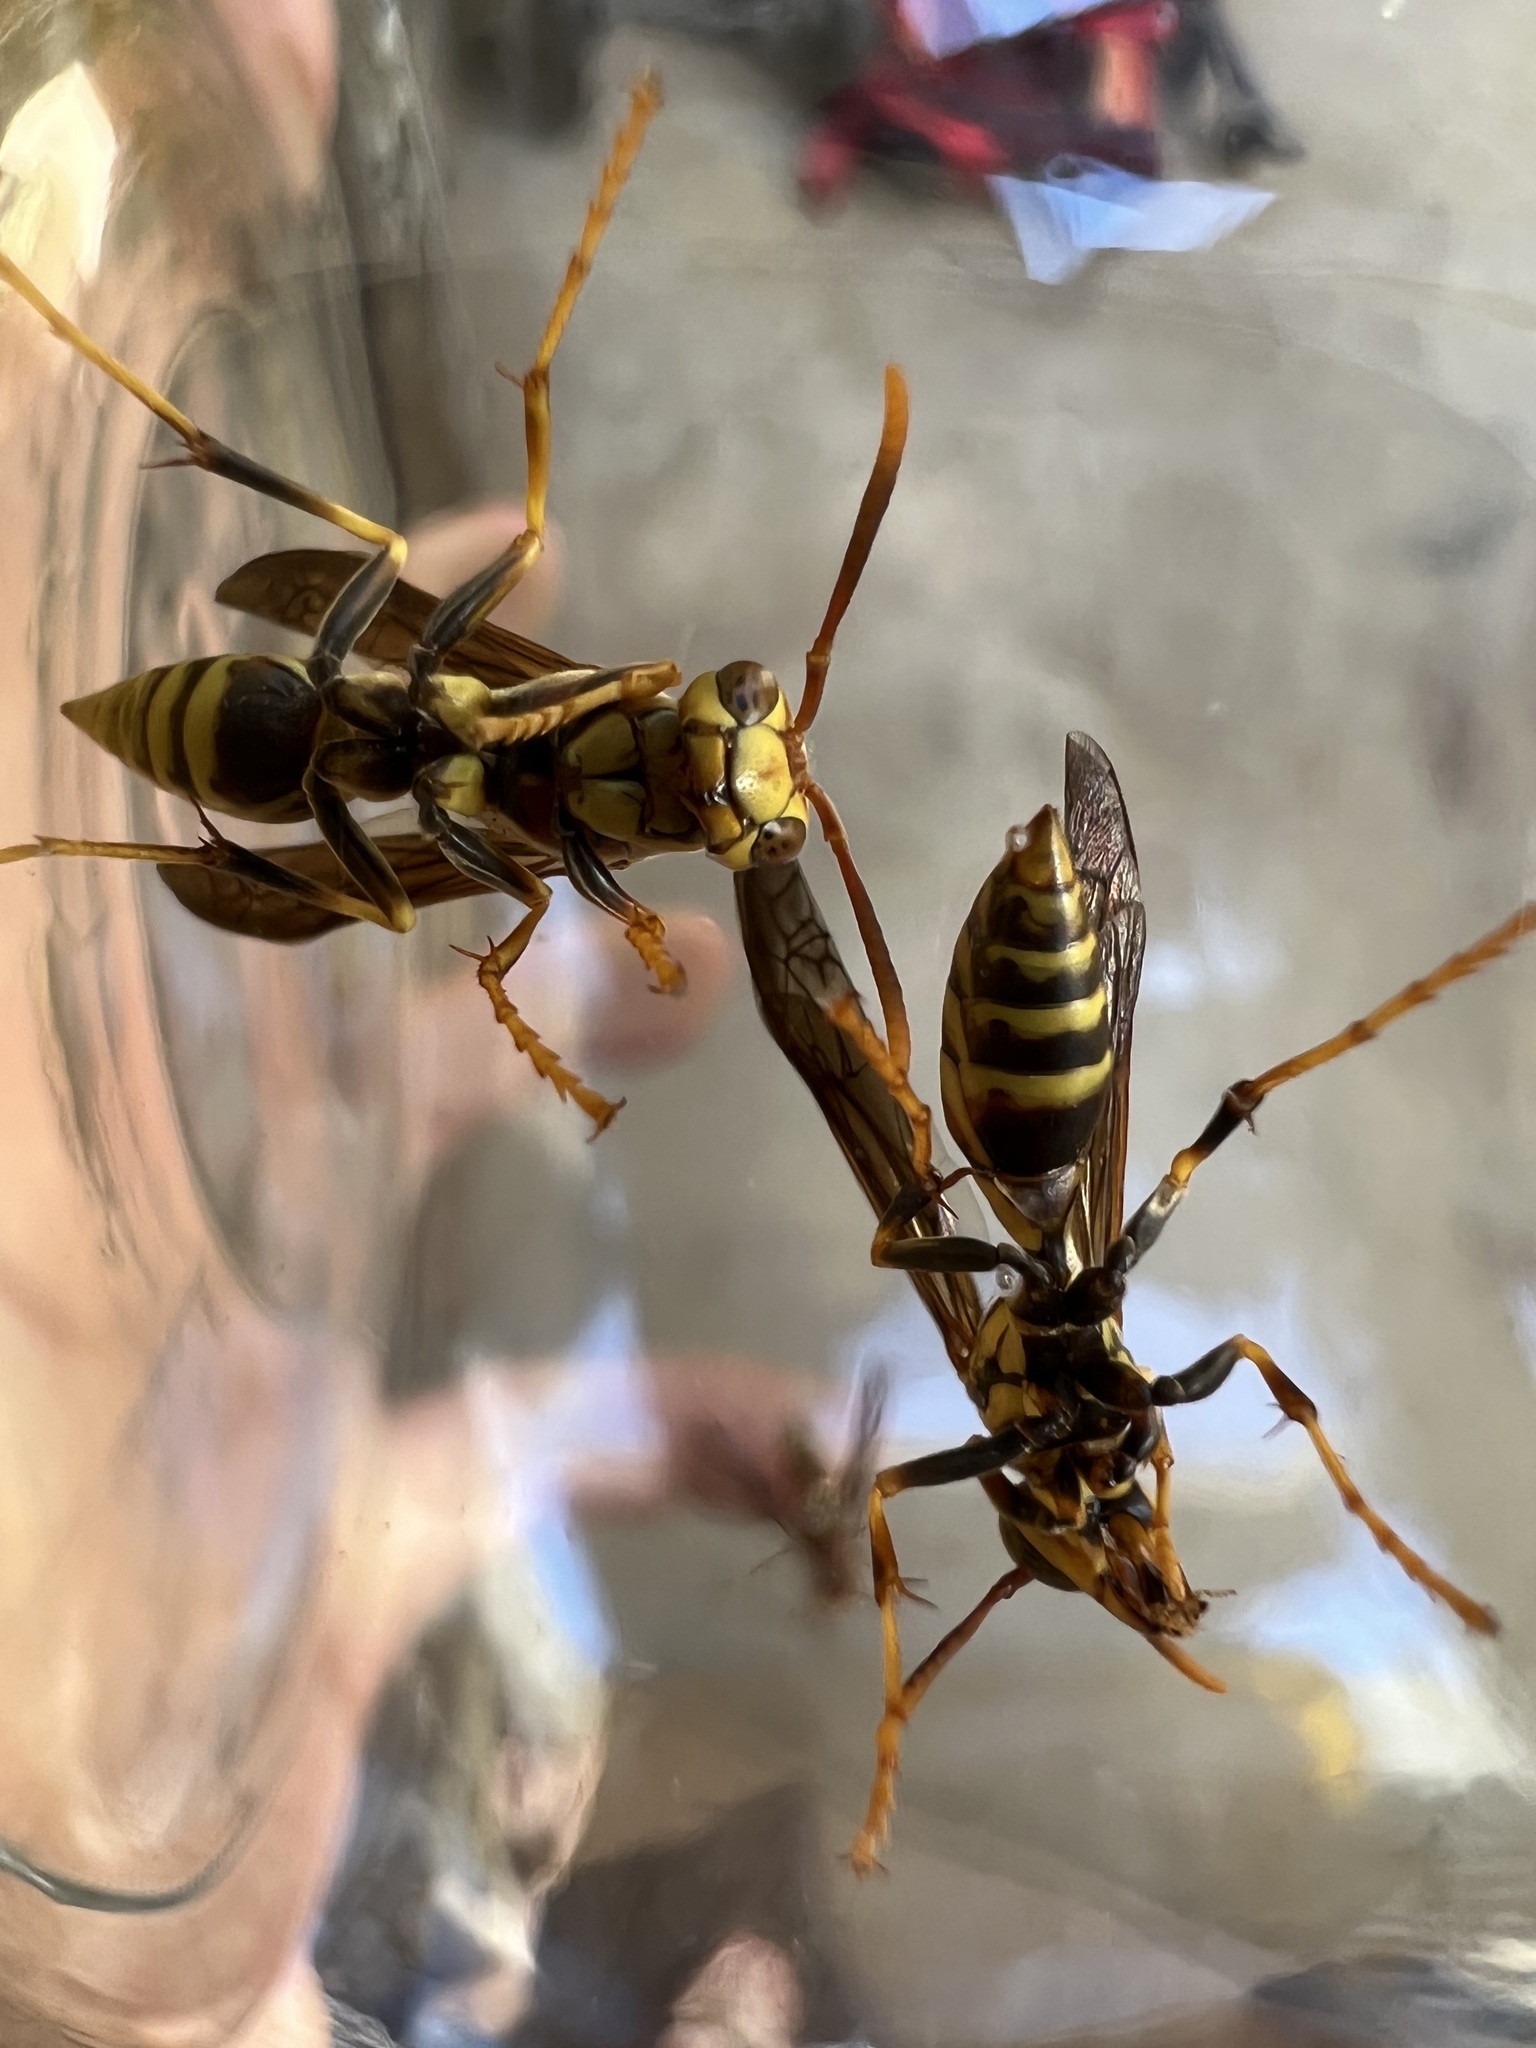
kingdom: Animalia
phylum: Arthropoda
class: Insecta
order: Hymenoptera
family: Eumenidae
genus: Polistes
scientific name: Polistes exclamans
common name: Paper wasp
